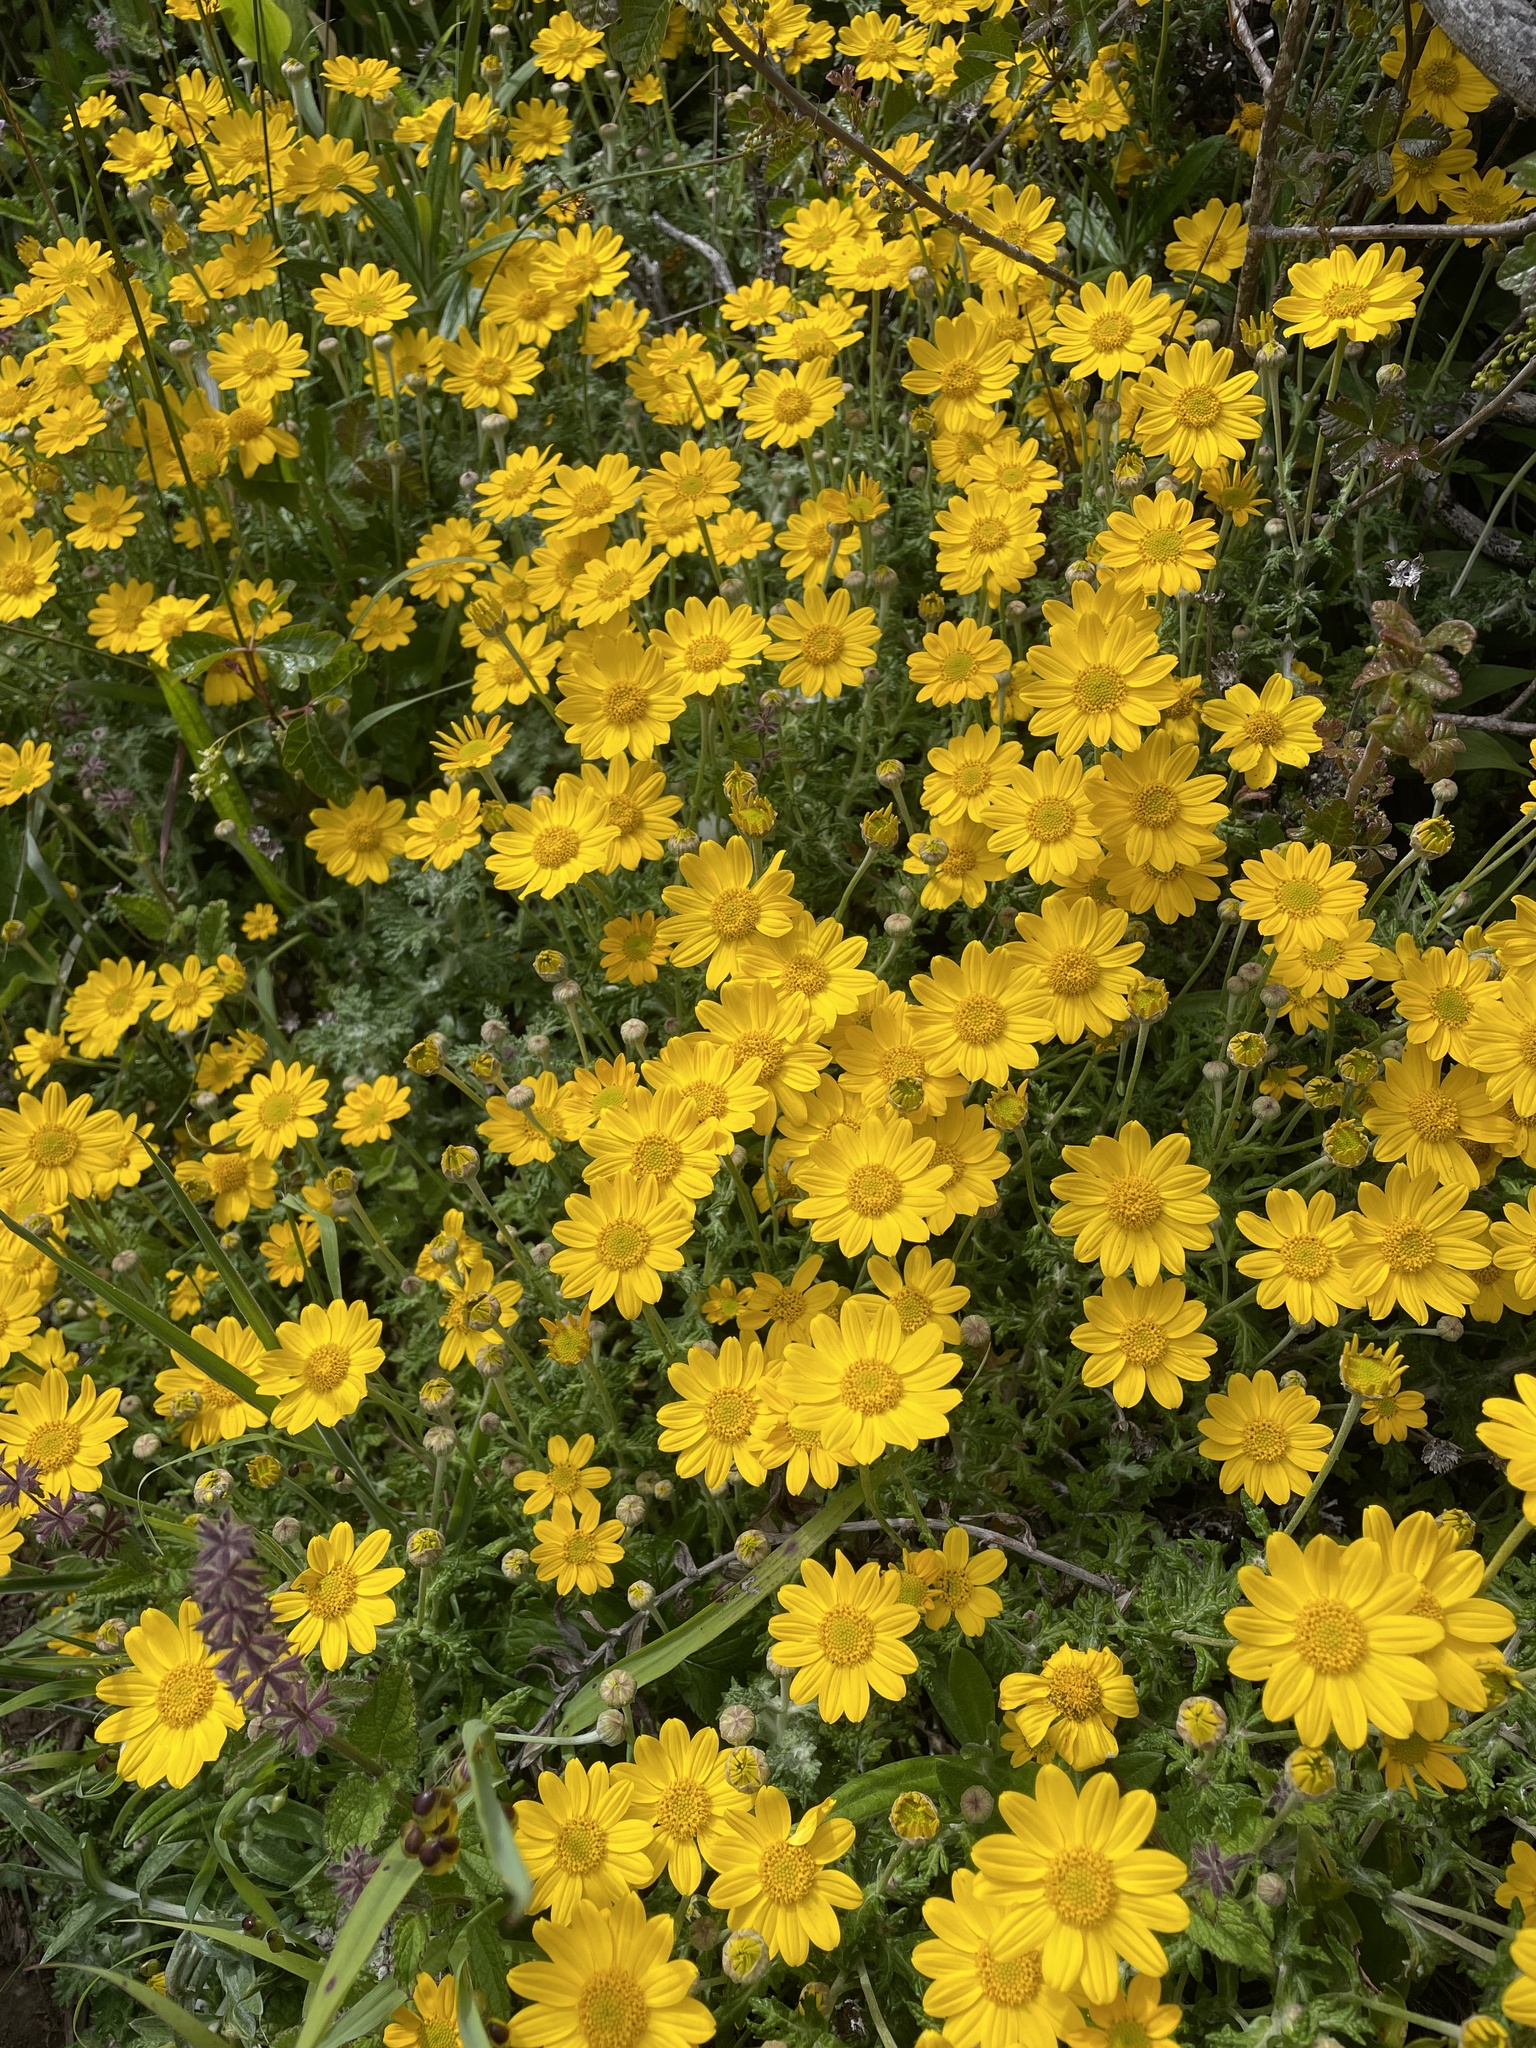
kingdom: Plantae
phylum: Tracheophyta
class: Magnoliopsida
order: Asterales
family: Asteraceae
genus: Eriophyllum
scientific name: Eriophyllum lanatum
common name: Common woolly-sunflower
